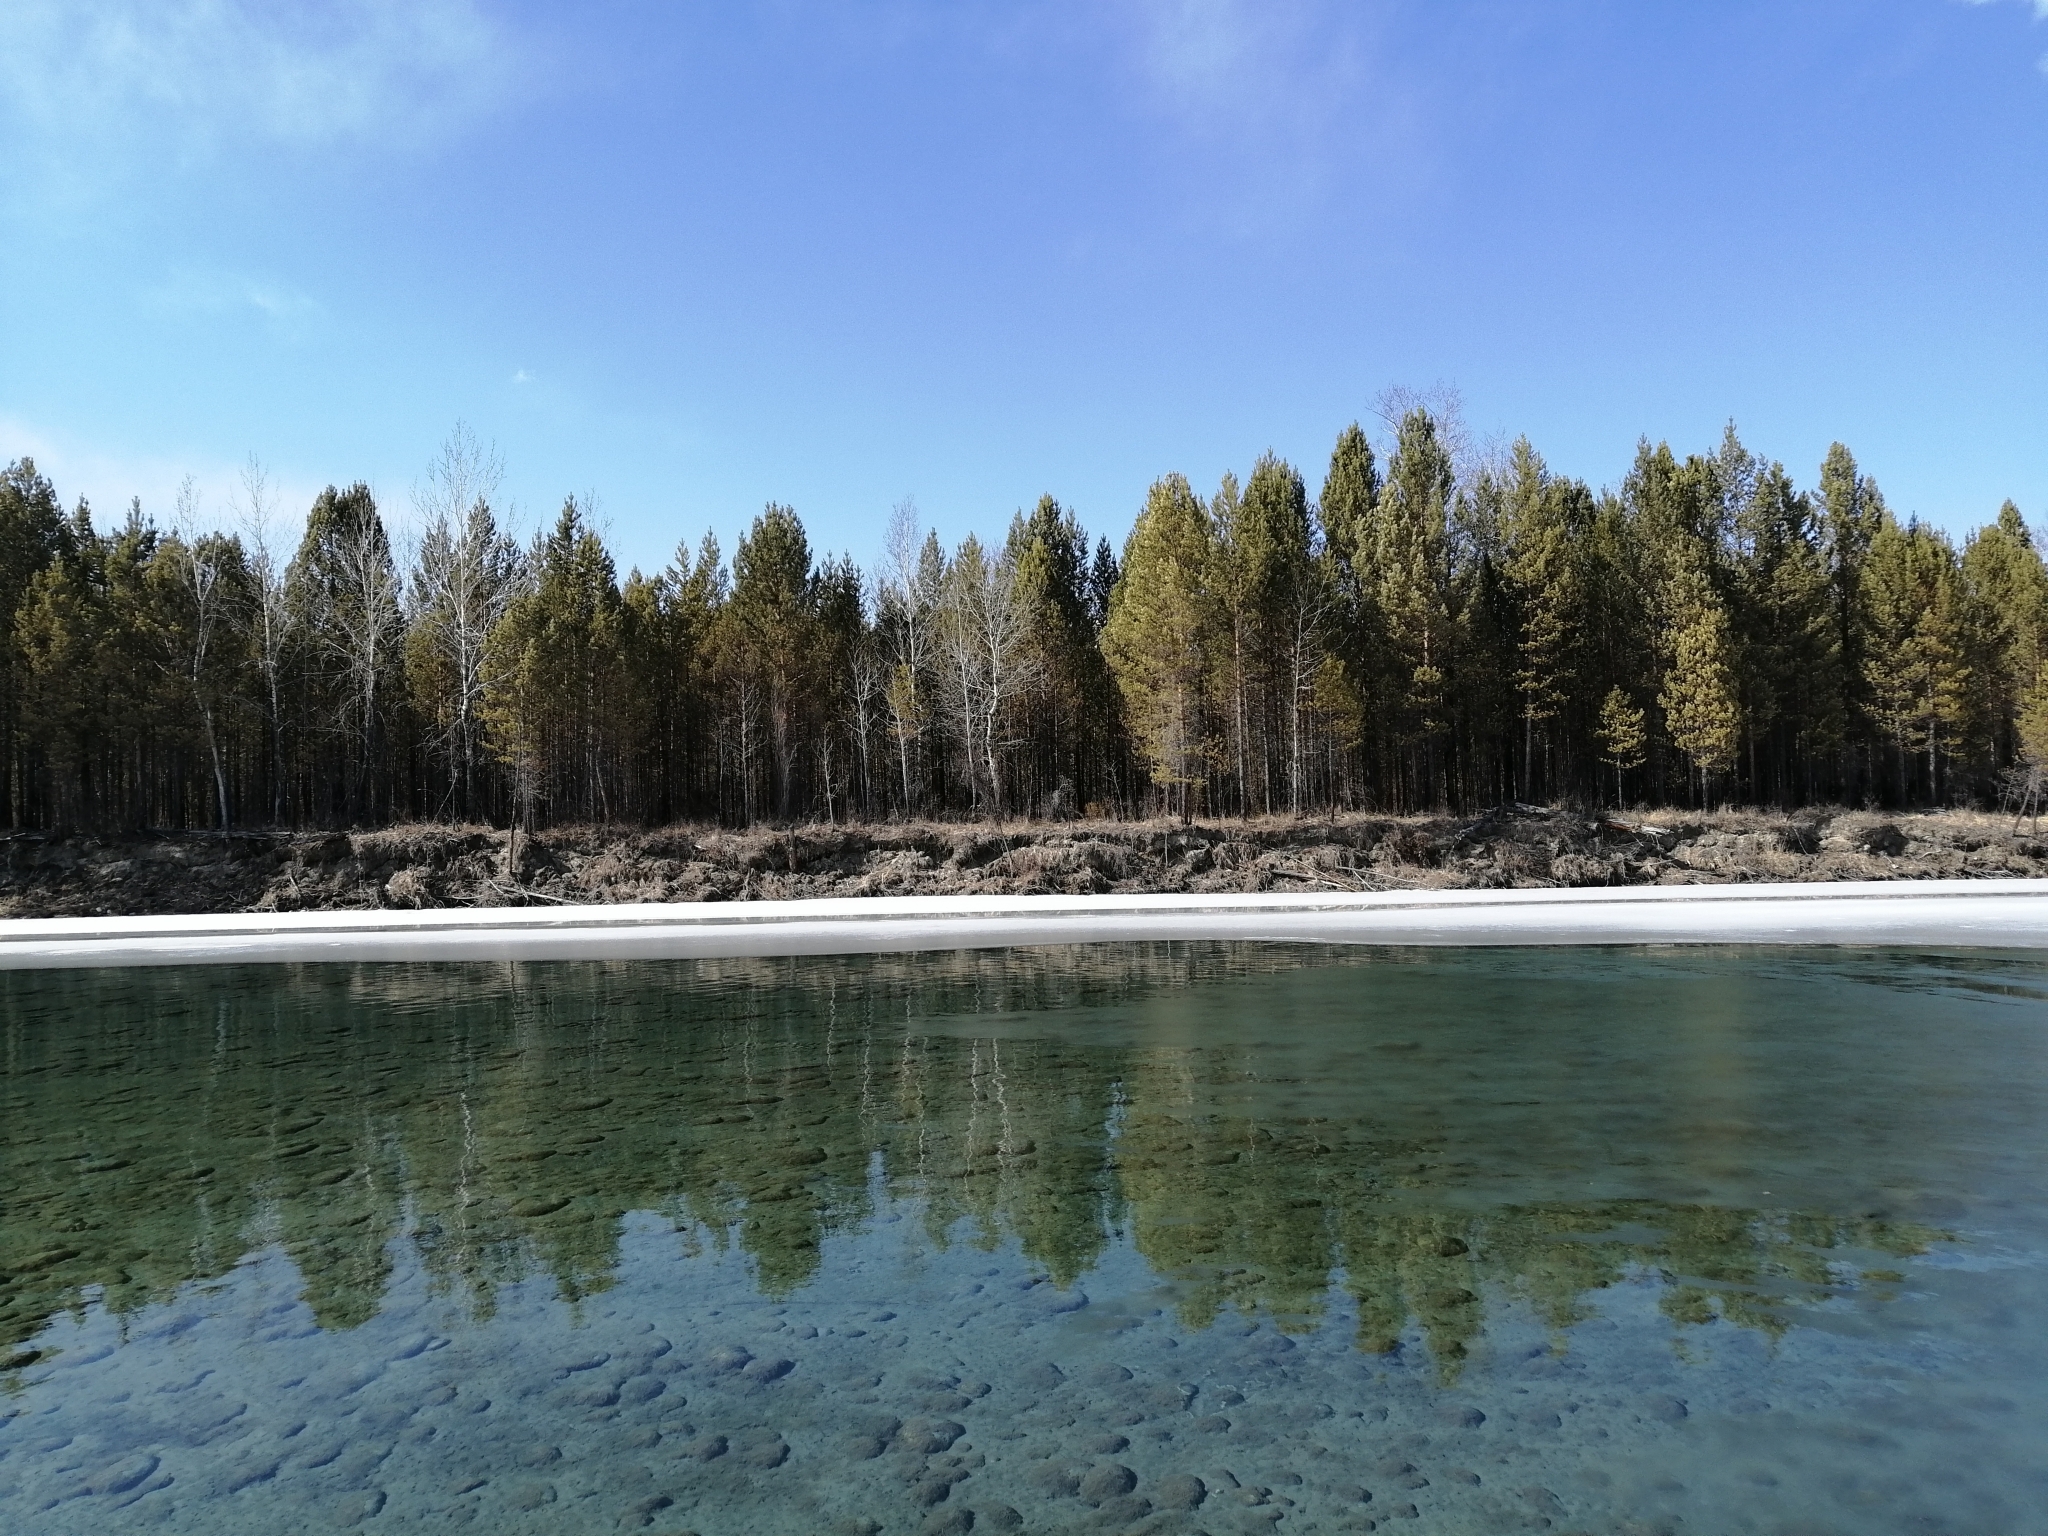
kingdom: Plantae
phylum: Tracheophyta
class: Pinopsida
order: Pinales
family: Pinaceae
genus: Pinus
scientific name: Pinus sylvestris
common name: Scots pine
